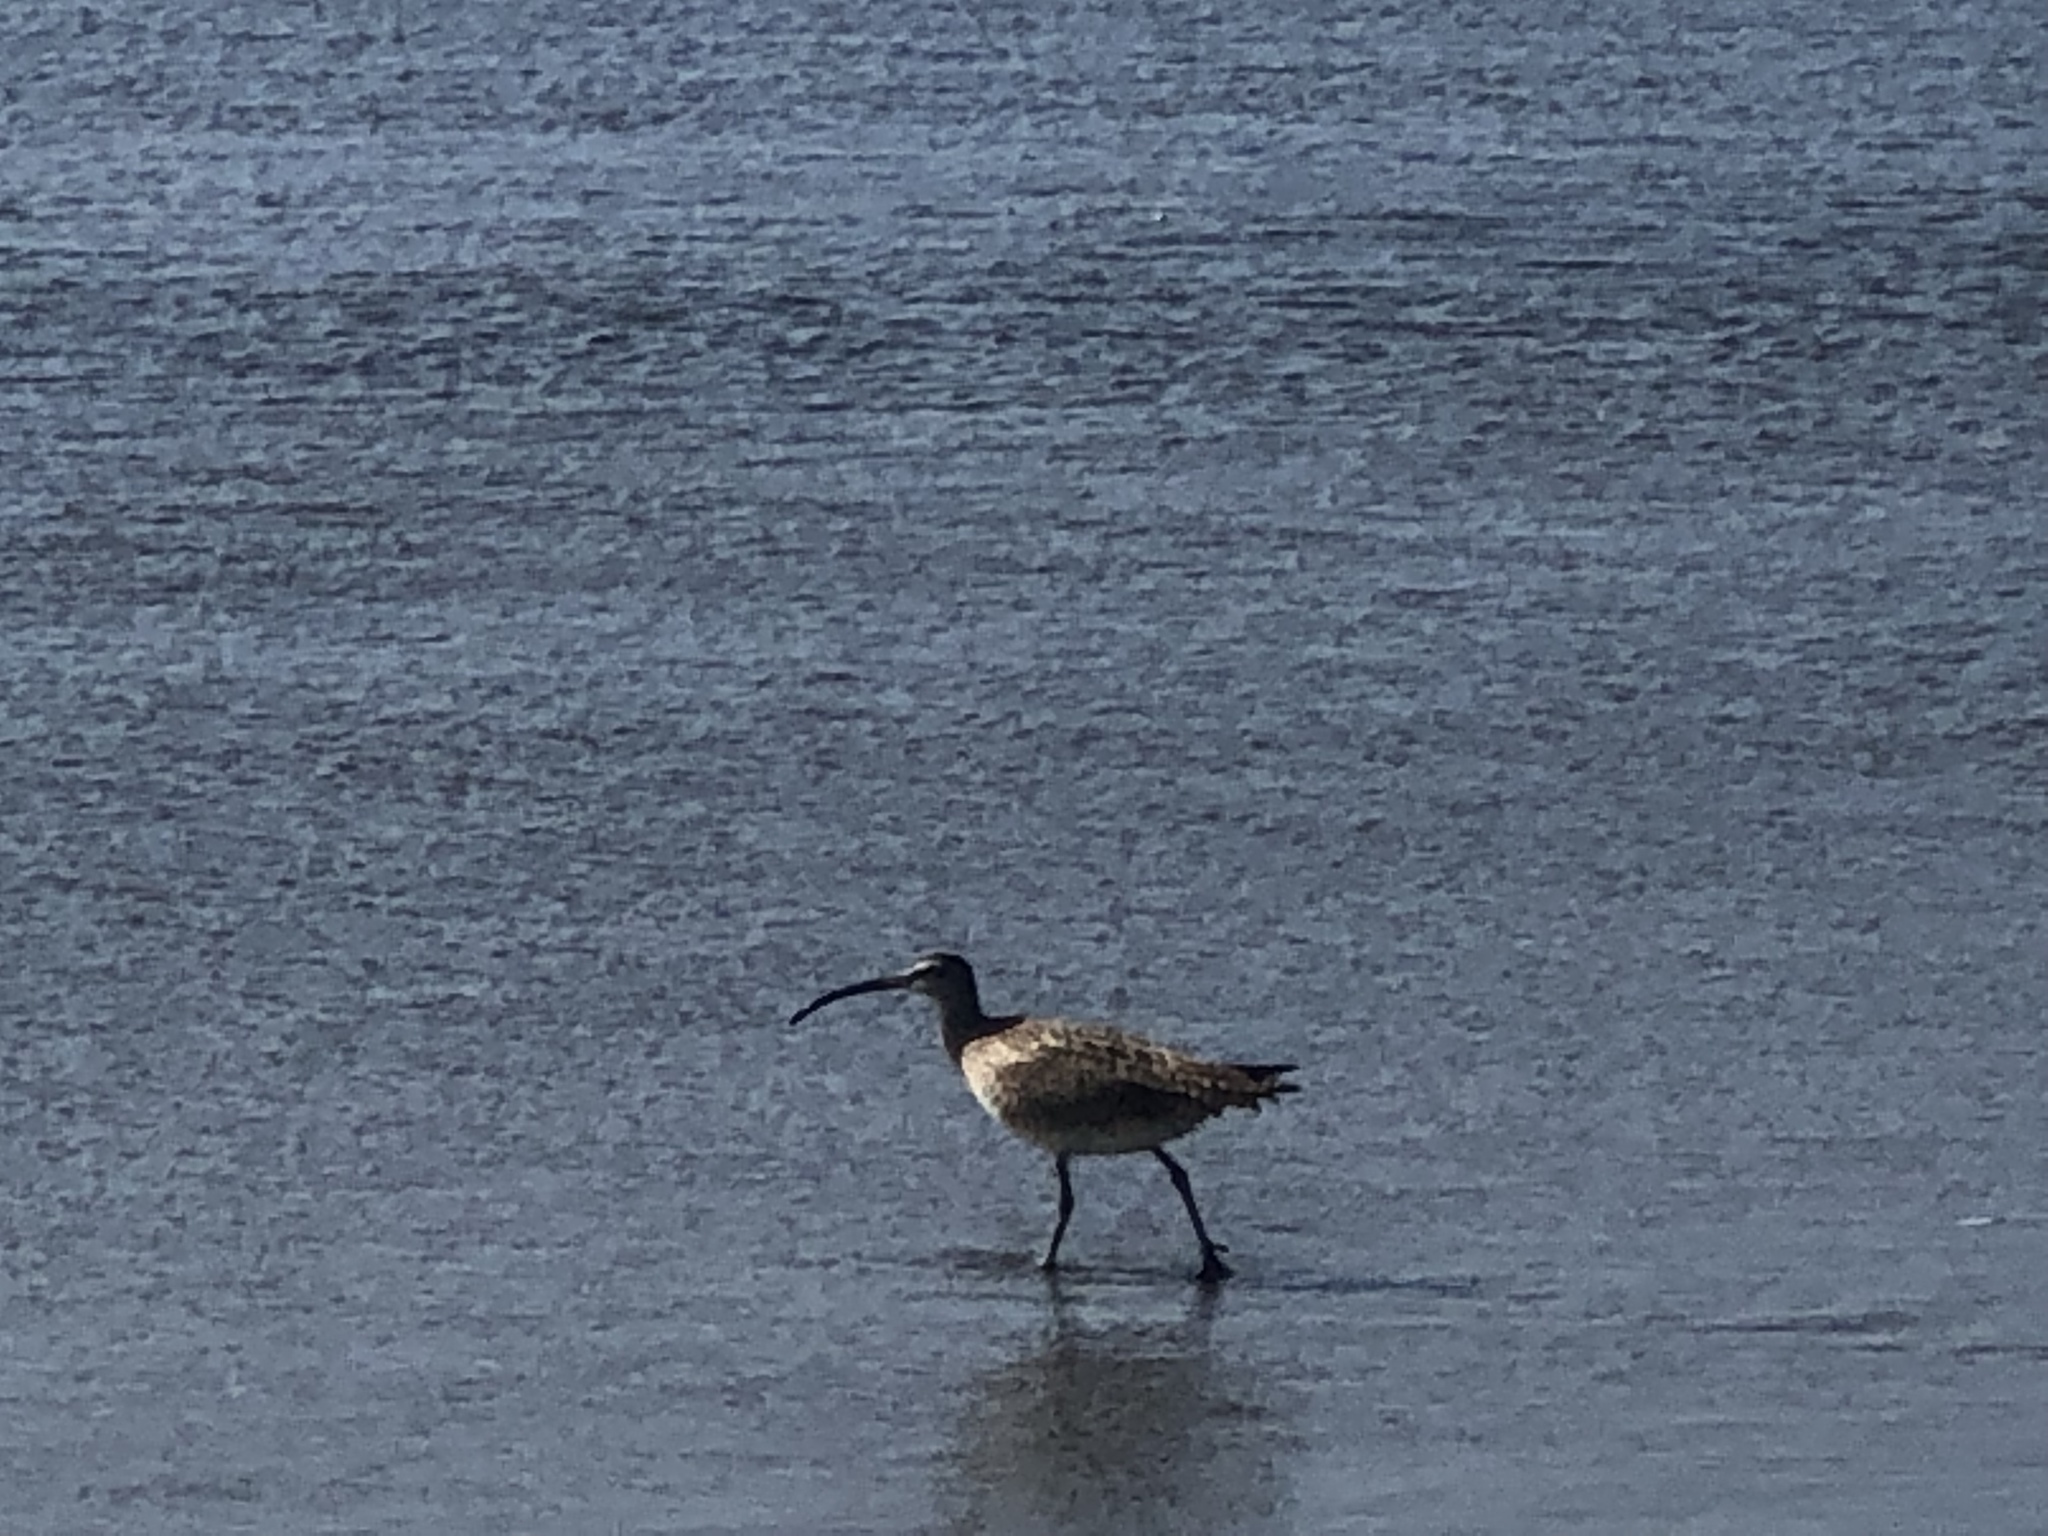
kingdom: Animalia
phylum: Chordata
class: Aves
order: Charadriiformes
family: Scolopacidae
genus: Numenius
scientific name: Numenius phaeopus
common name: Whimbrel
